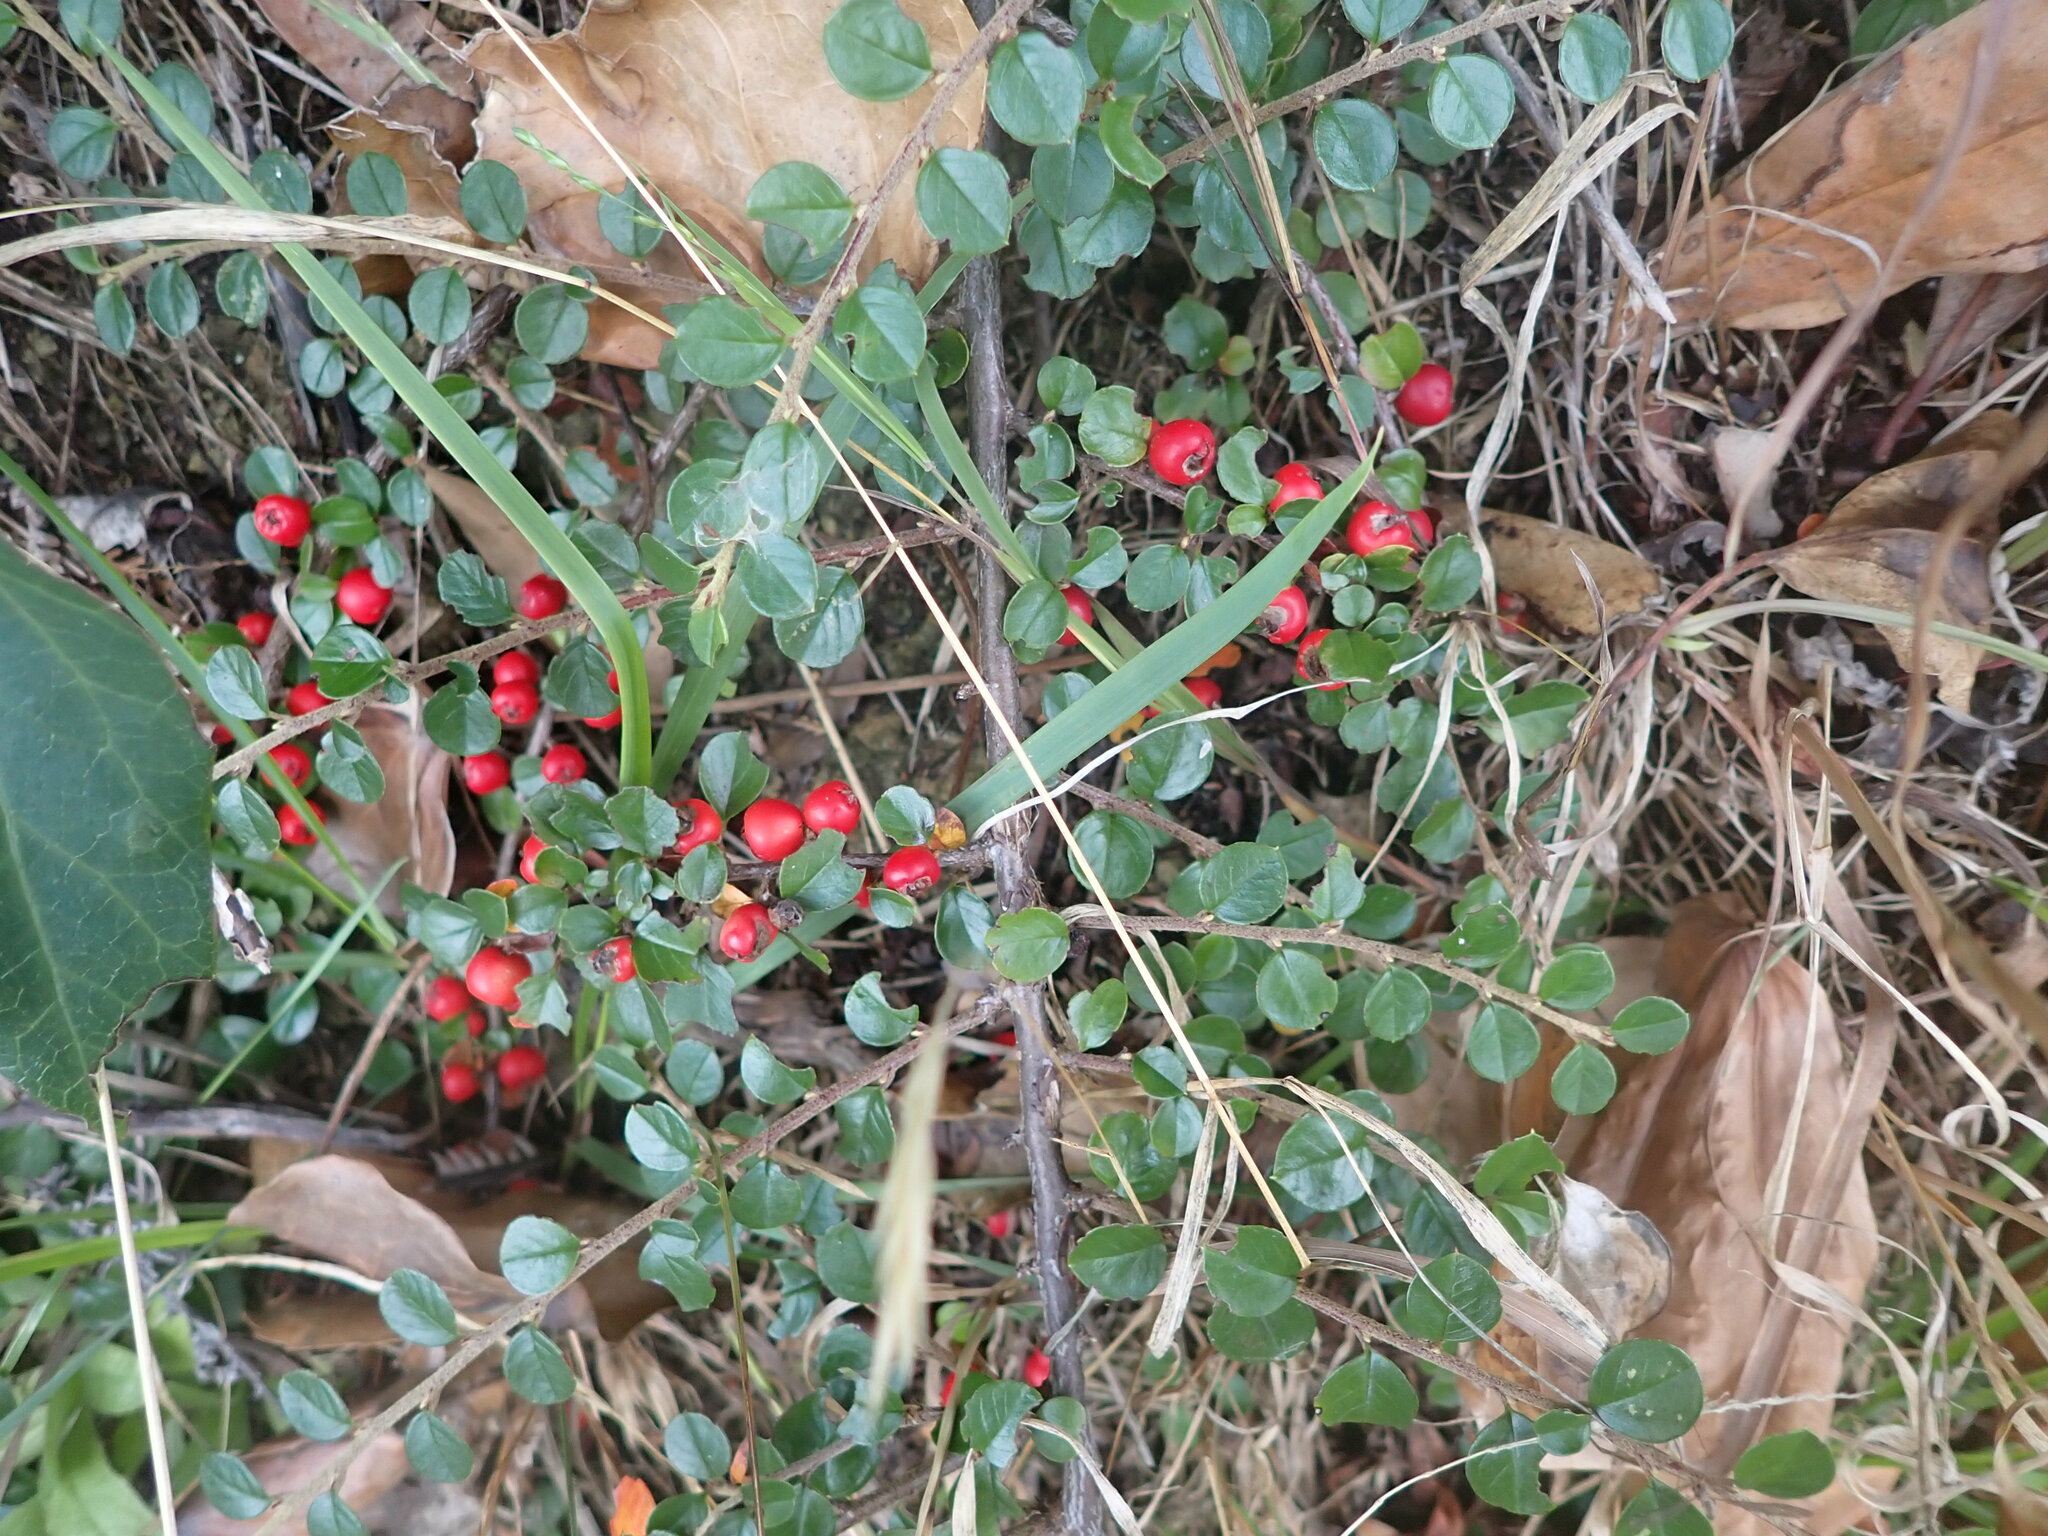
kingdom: Plantae
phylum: Tracheophyta
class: Magnoliopsida
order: Rosales
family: Rosaceae
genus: Cotoneaster
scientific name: Cotoneaster hjelmqvistii
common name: Hjelmqvist's cotoneaster
